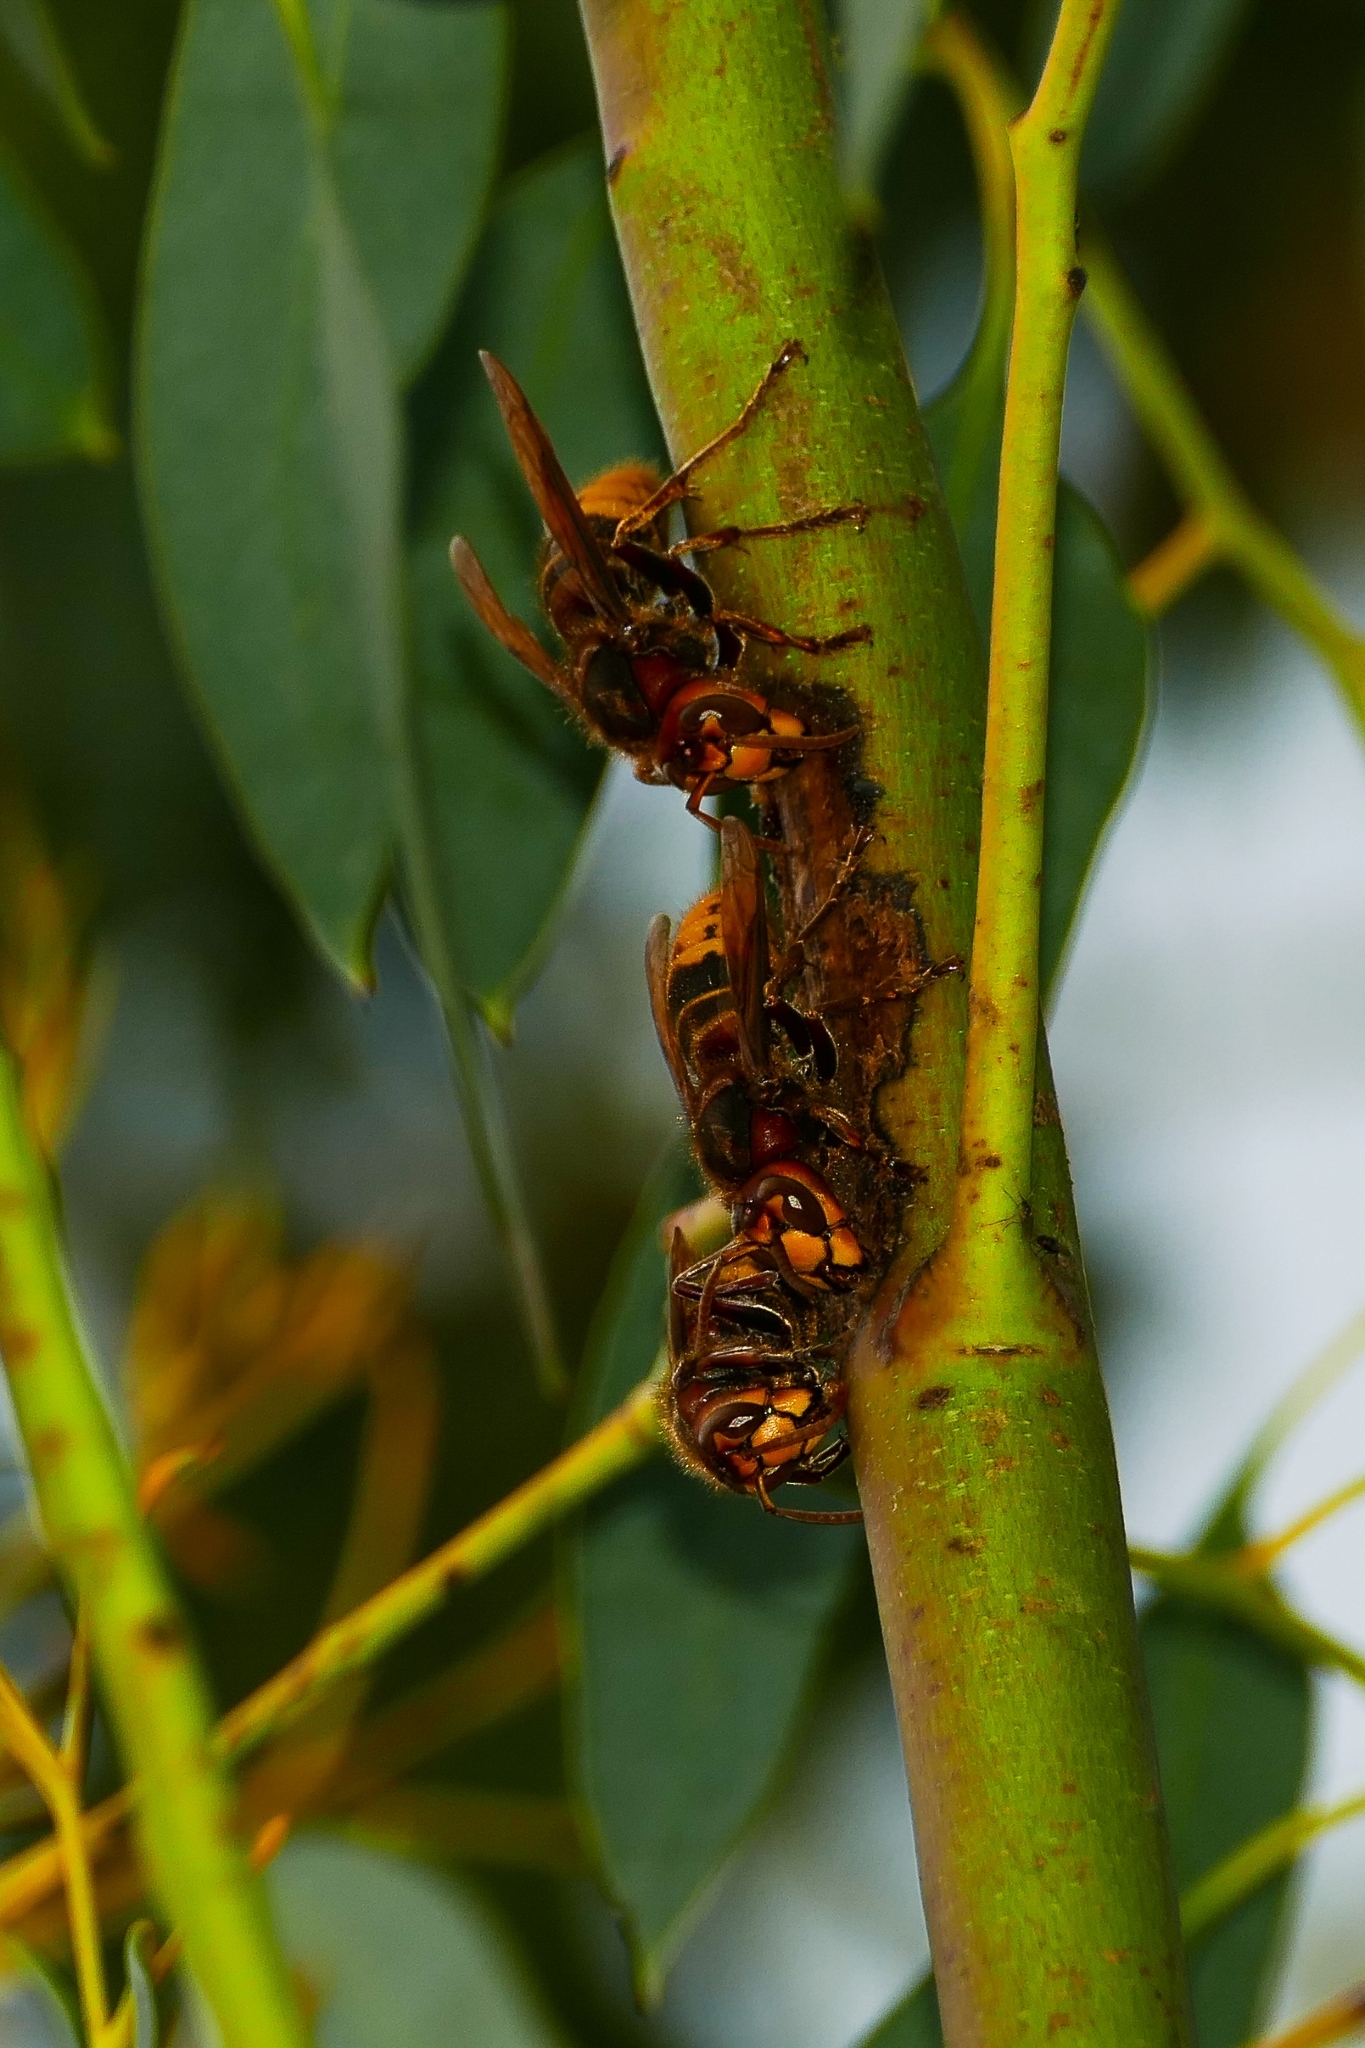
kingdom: Animalia
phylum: Arthropoda
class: Insecta
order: Hymenoptera
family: Vespidae
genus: Vespa
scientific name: Vespa crabro
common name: Hornet
